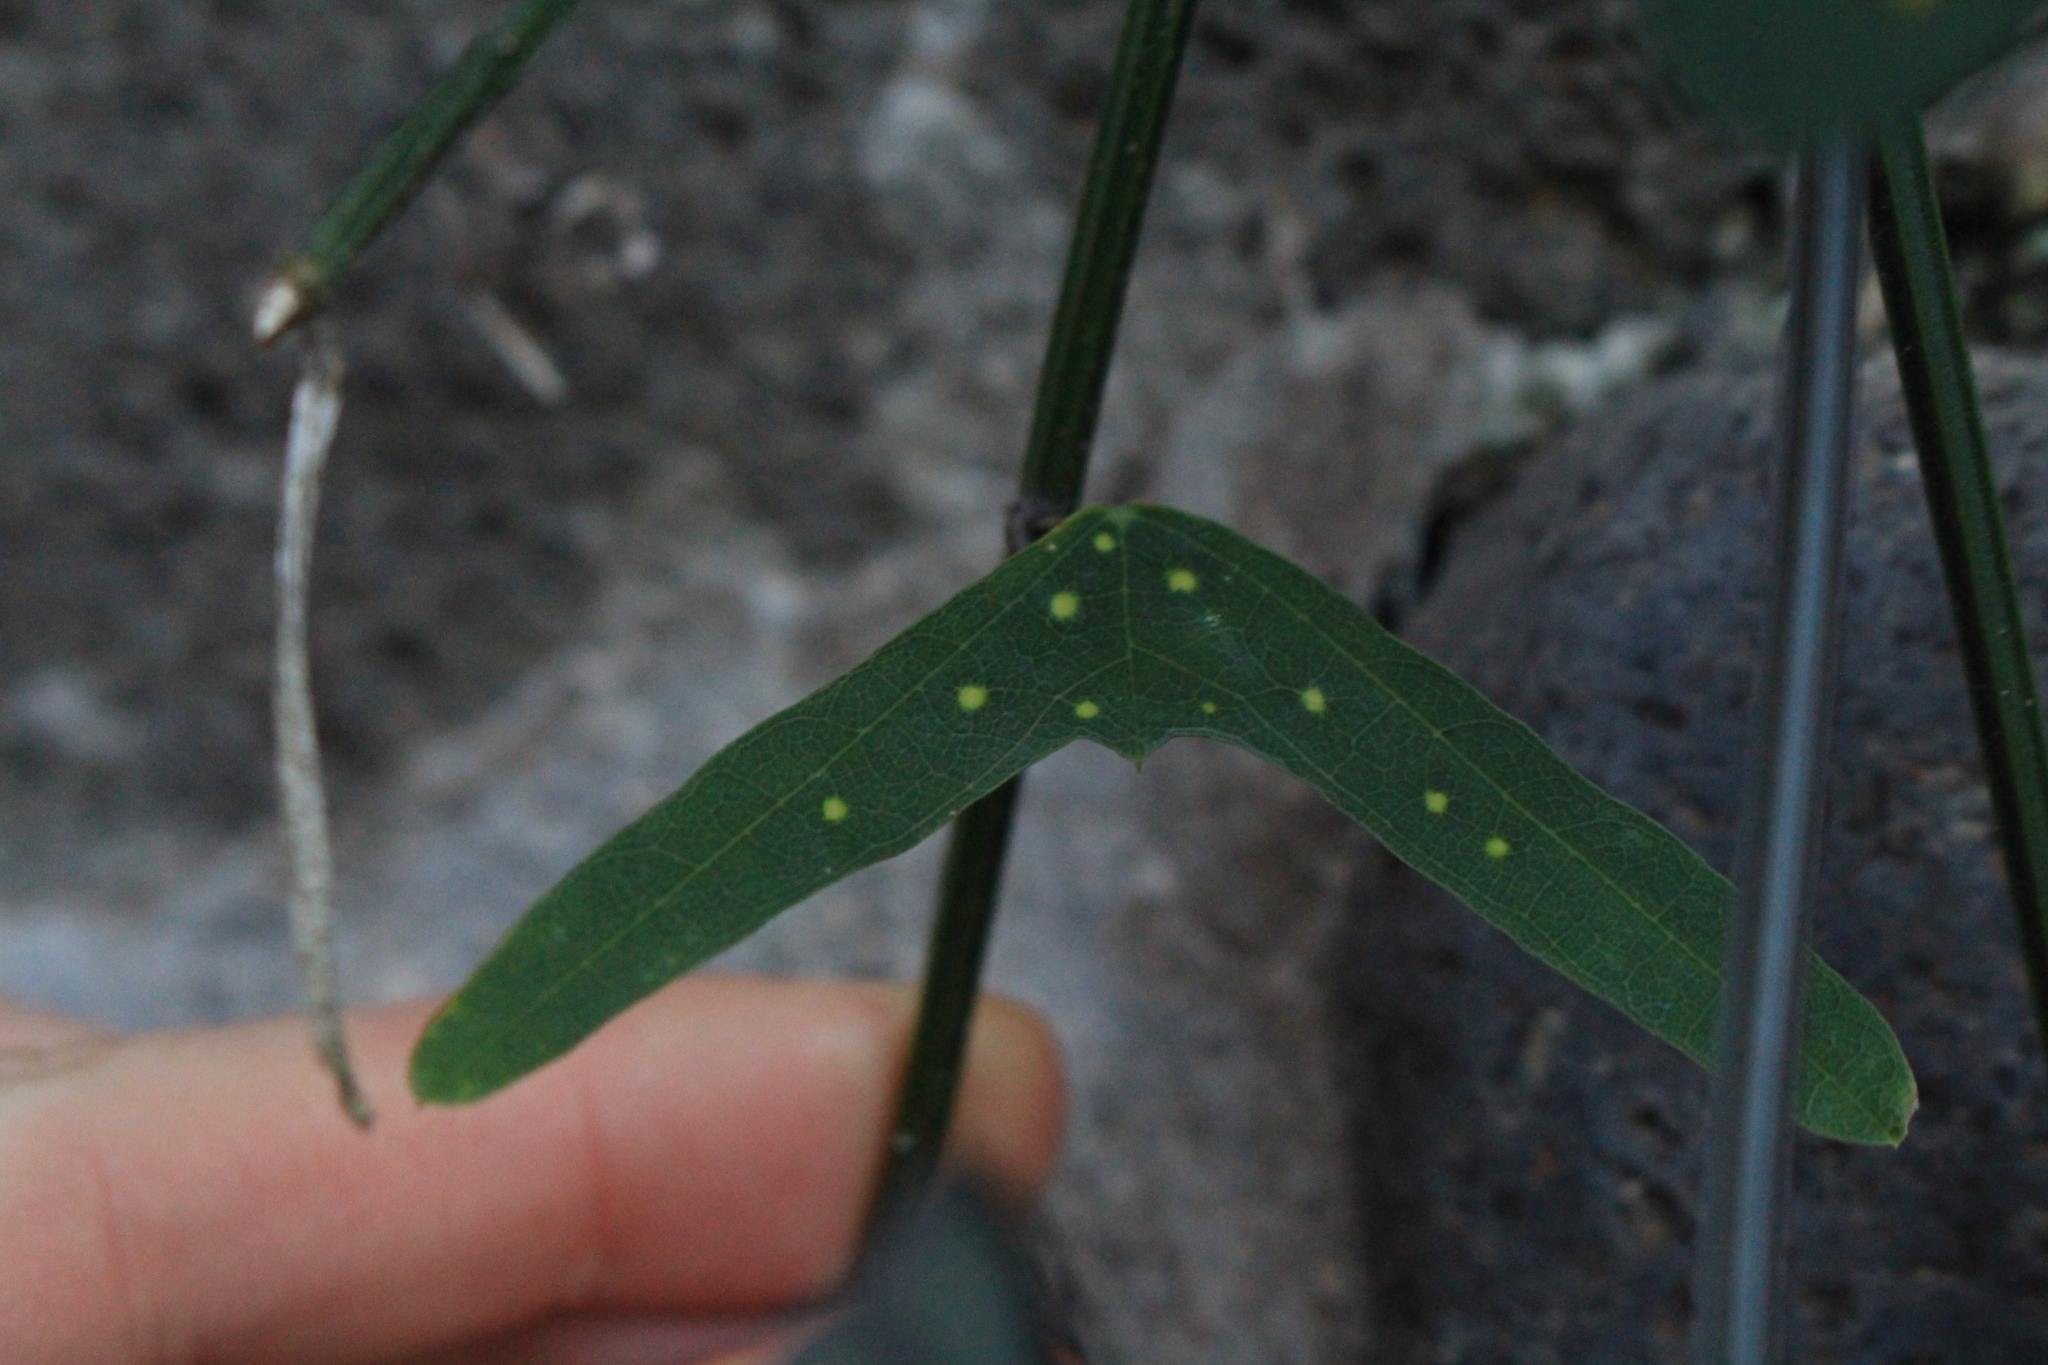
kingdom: Plantae
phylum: Tracheophyta
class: Magnoliopsida
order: Malpighiales
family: Passifloraceae
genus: Passiflora
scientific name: Passiflora biflora
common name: Twoflower passionflower
